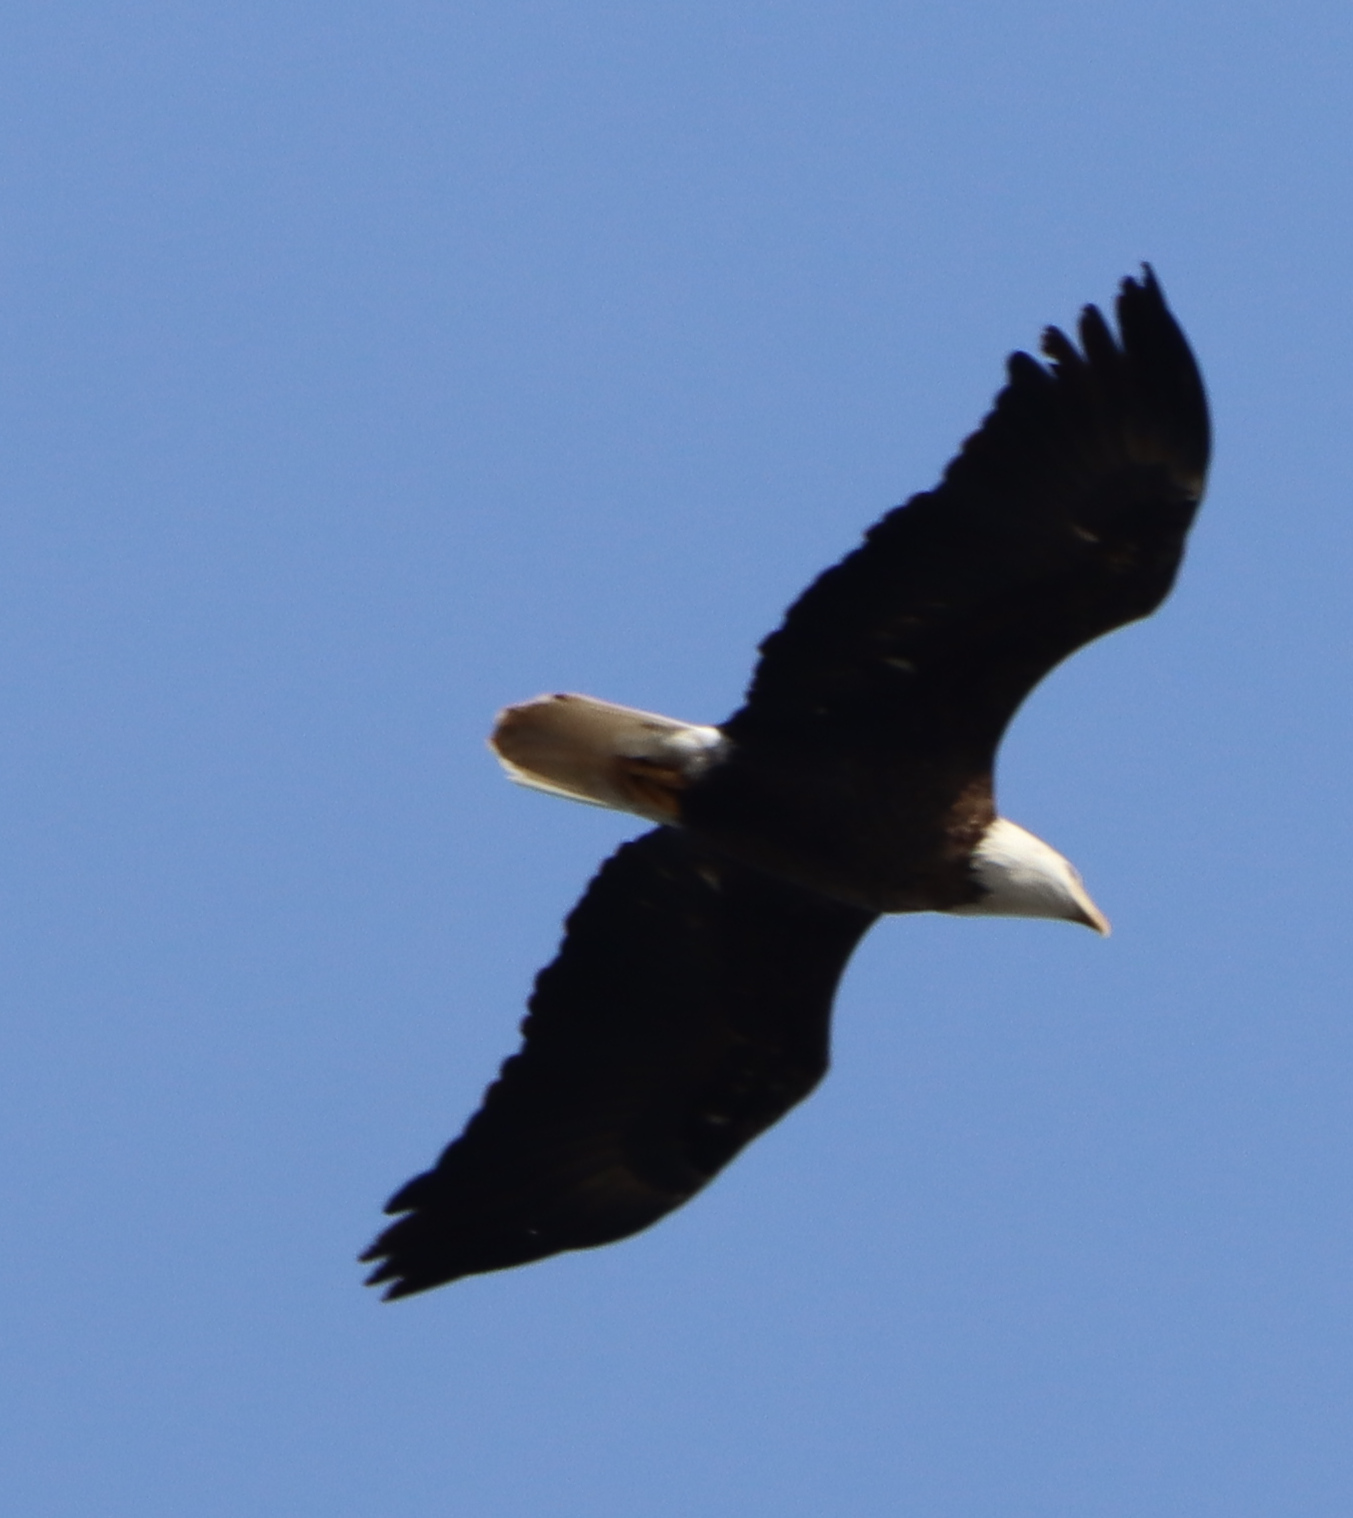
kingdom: Animalia
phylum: Chordata
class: Aves
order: Accipitriformes
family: Accipitridae
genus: Haliaeetus
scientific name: Haliaeetus leucocephalus
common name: Bald eagle
